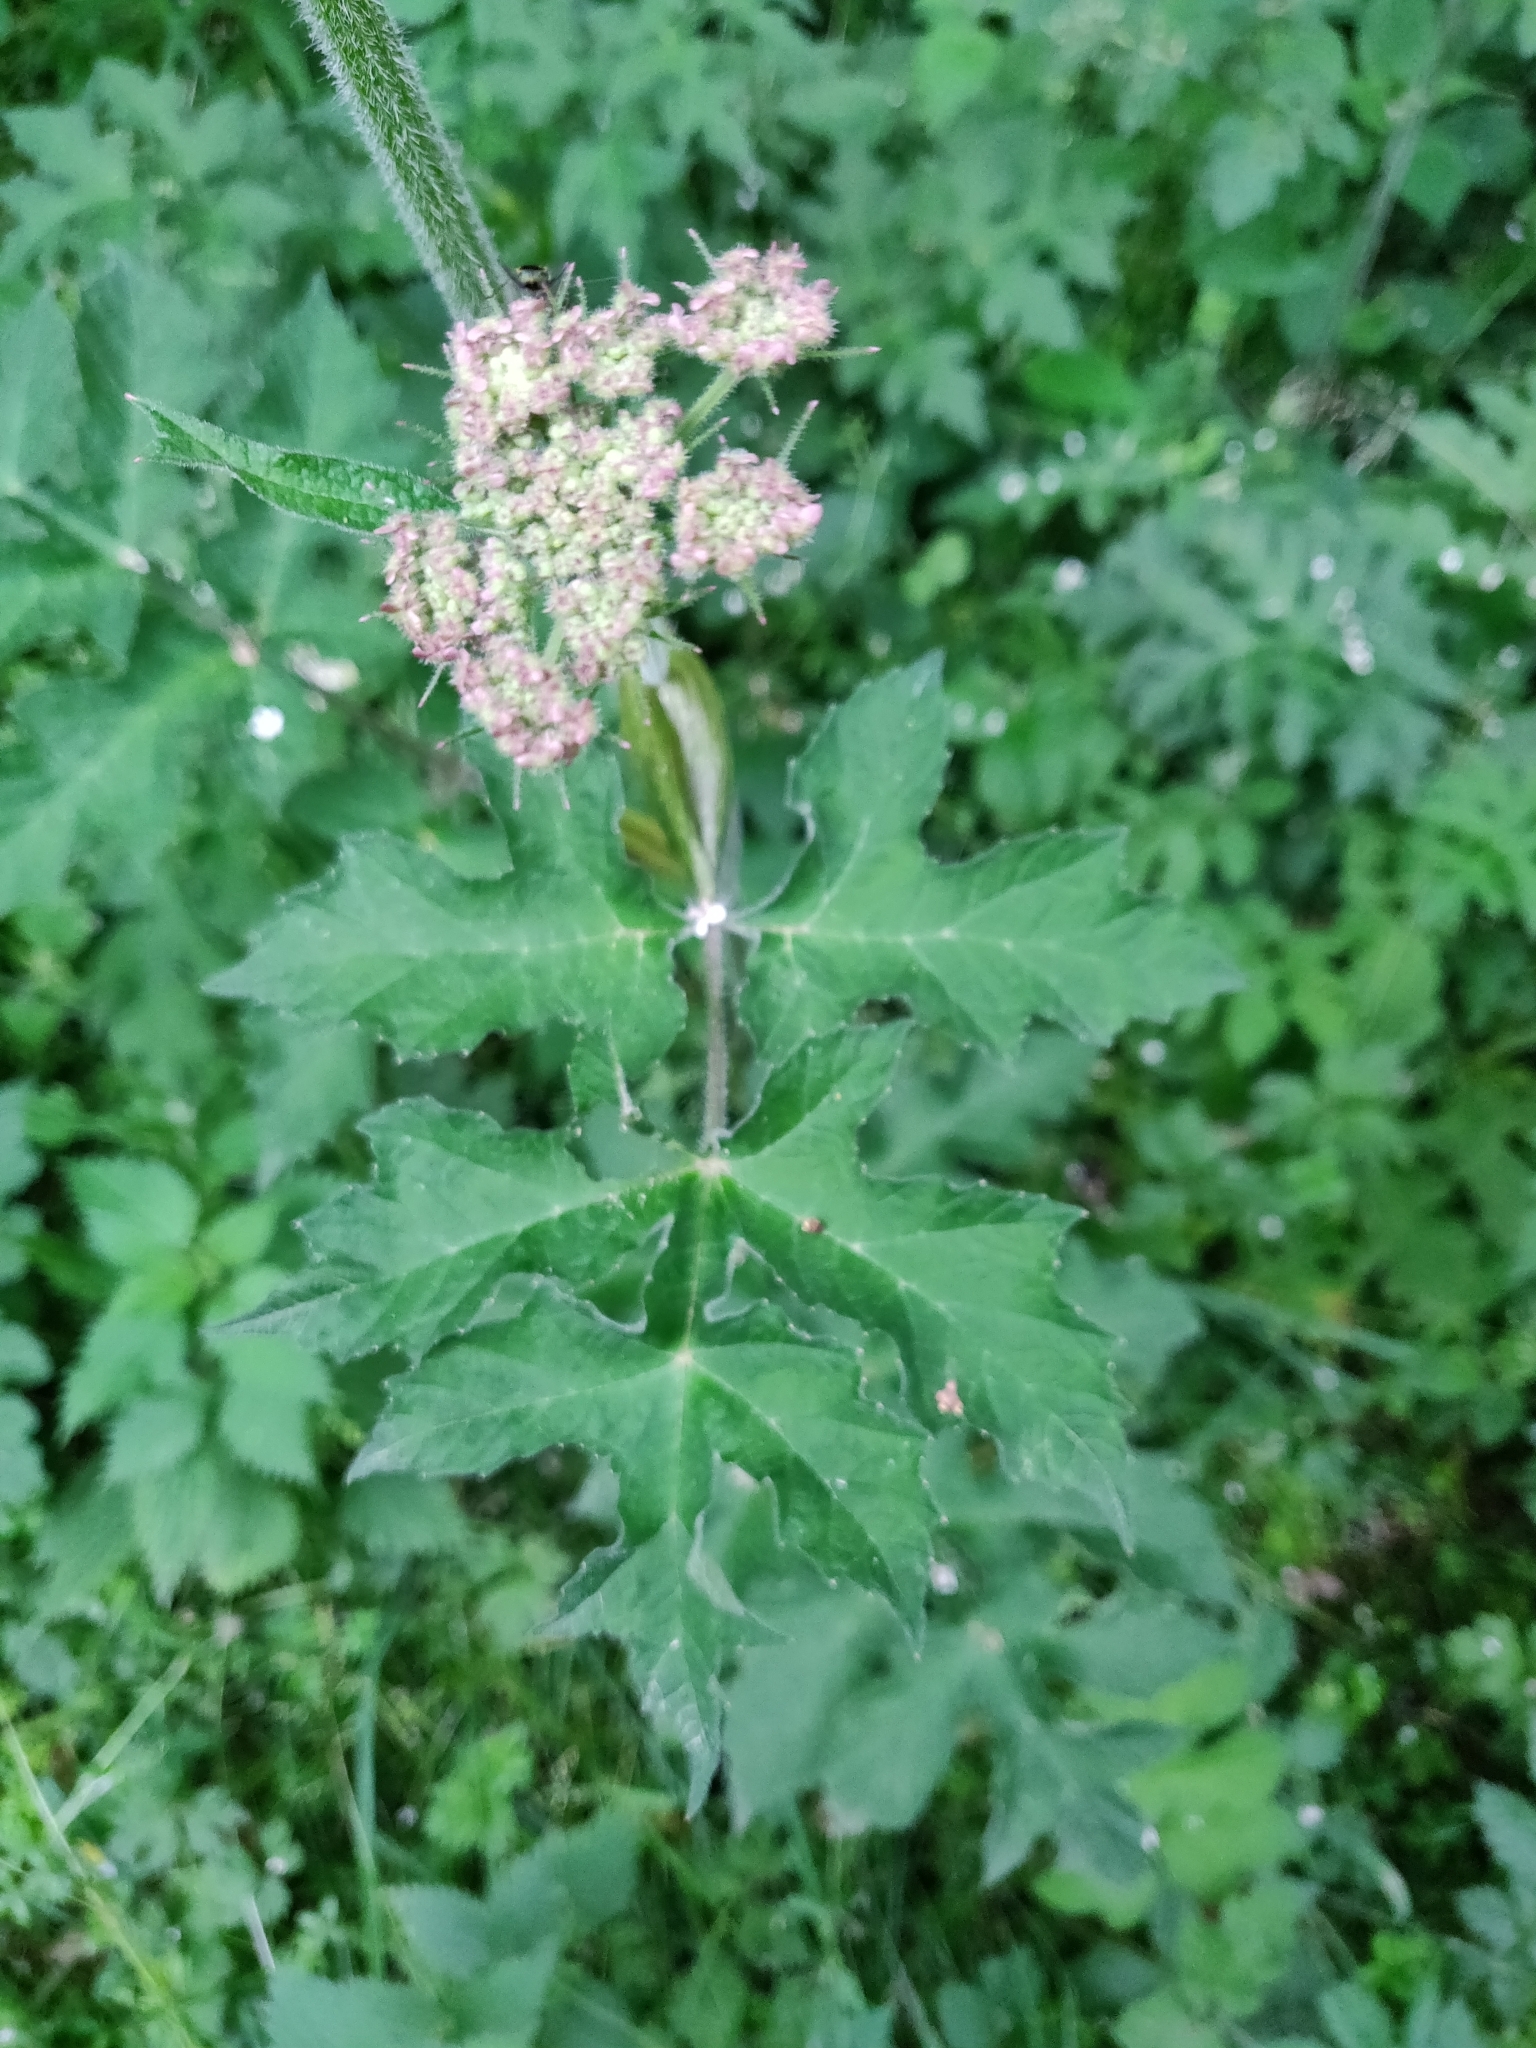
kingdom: Plantae
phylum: Tracheophyta
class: Magnoliopsida
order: Apiales
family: Apiaceae
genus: Heracleum
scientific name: Heracleum sphondylium
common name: Hogweed
